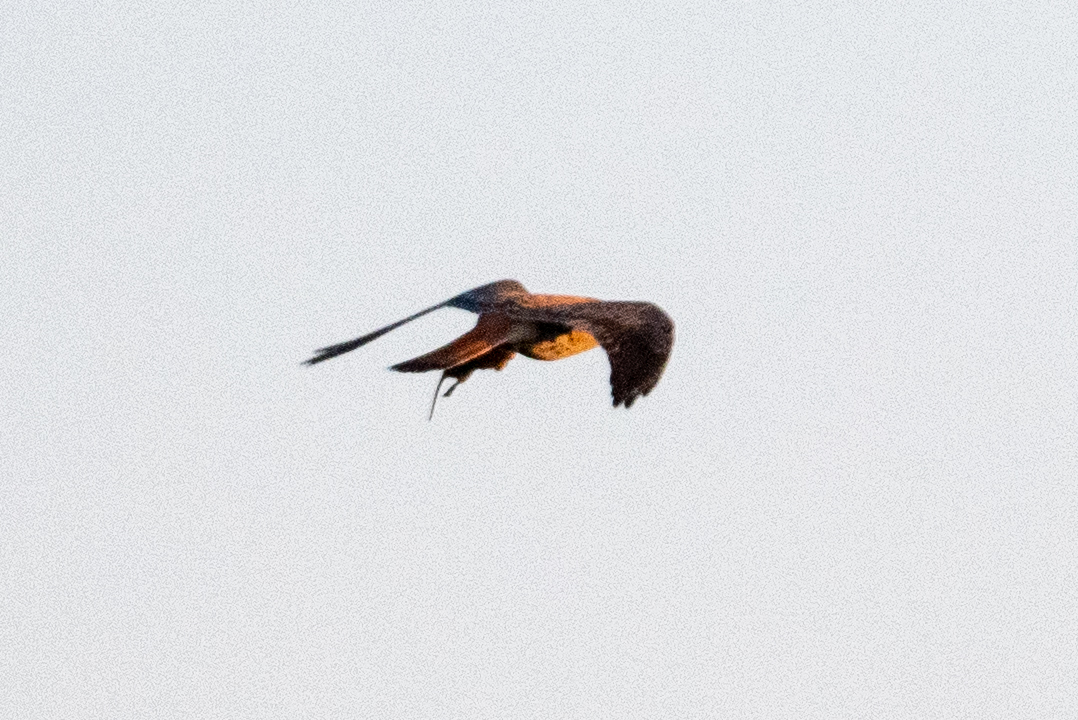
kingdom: Animalia
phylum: Chordata
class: Aves
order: Falconiformes
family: Falconidae
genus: Falco
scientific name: Falco sparverius
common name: American kestrel
